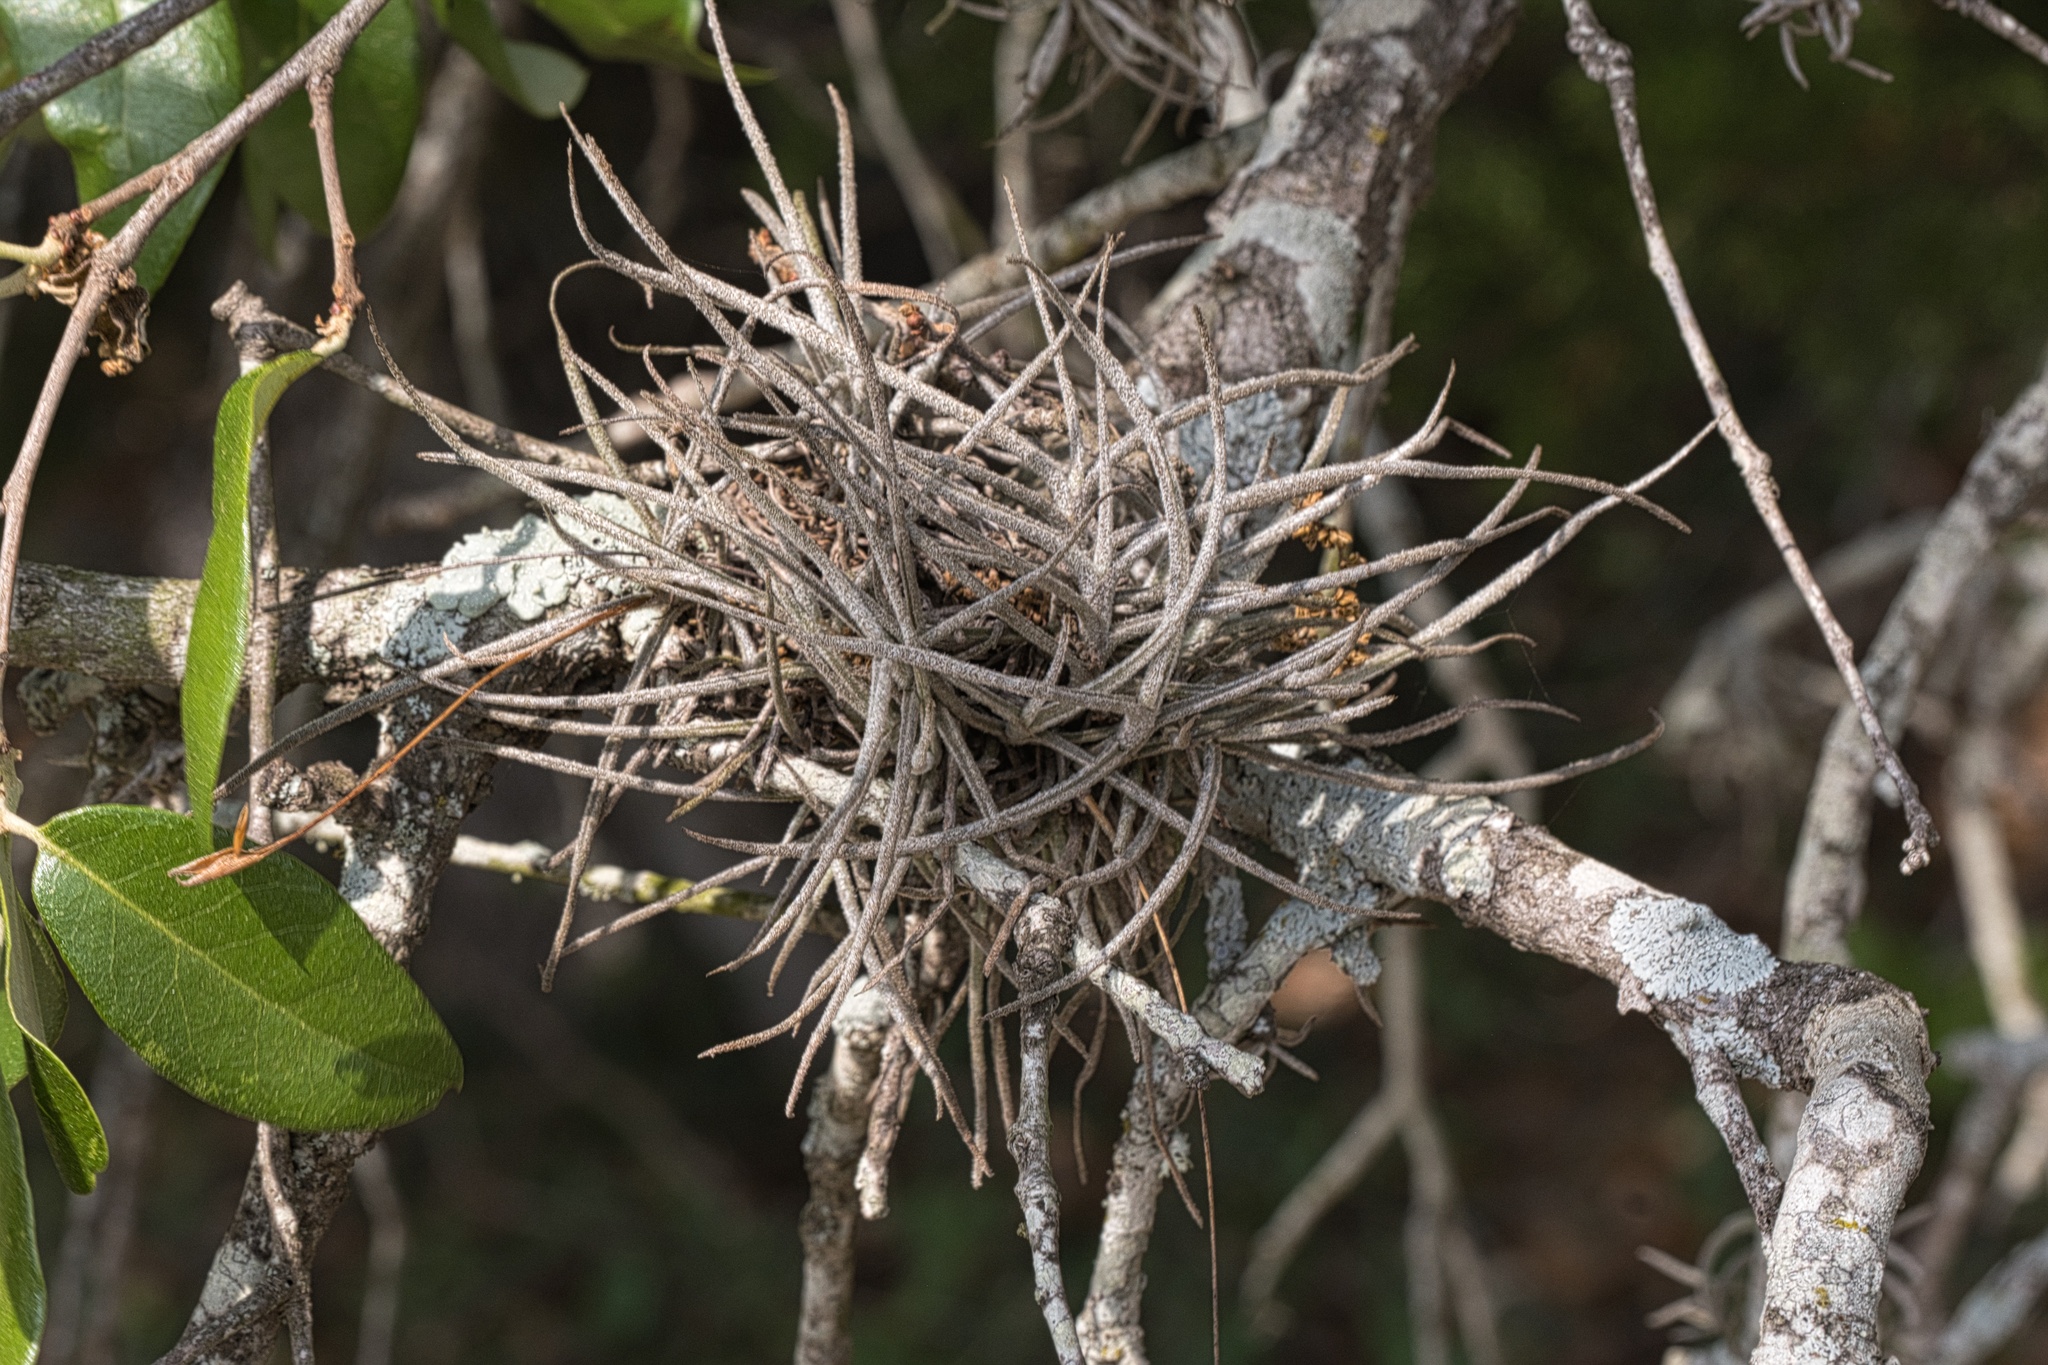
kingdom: Plantae
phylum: Tracheophyta
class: Liliopsida
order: Poales
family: Bromeliaceae
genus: Tillandsia
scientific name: Tillandsia recurvata
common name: Small ballmoss
